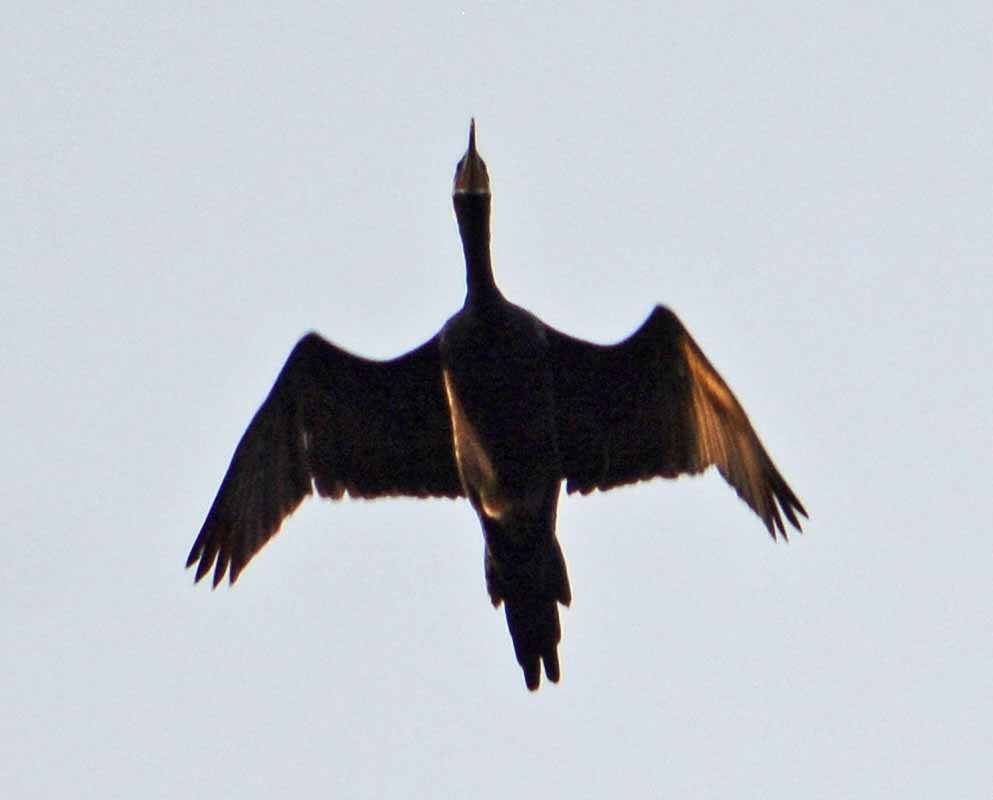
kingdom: Animalia
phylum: Chordata
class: Aves
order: Suliformes
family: Phalacrocoracidae
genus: Phalacrocorax
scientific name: Phalacrocorax brasilianus
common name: Neotropic cormorant
